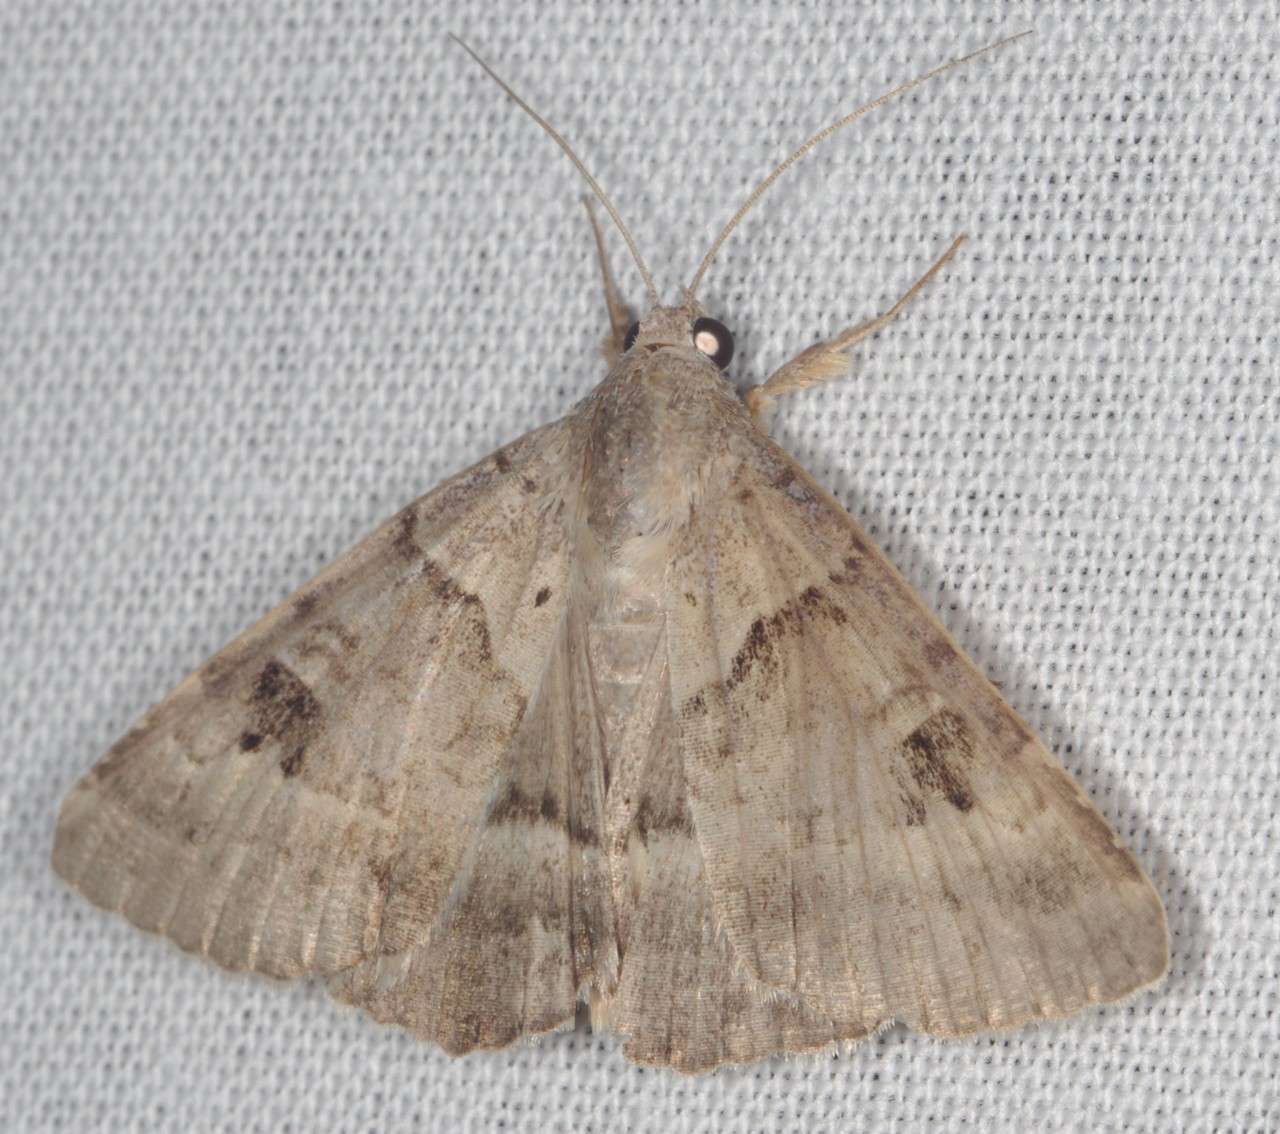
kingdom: Animalia
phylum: Arthropoda
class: Insecta
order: Lepidoptera
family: Erebidae
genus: Mocis
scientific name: Mocis alterna
